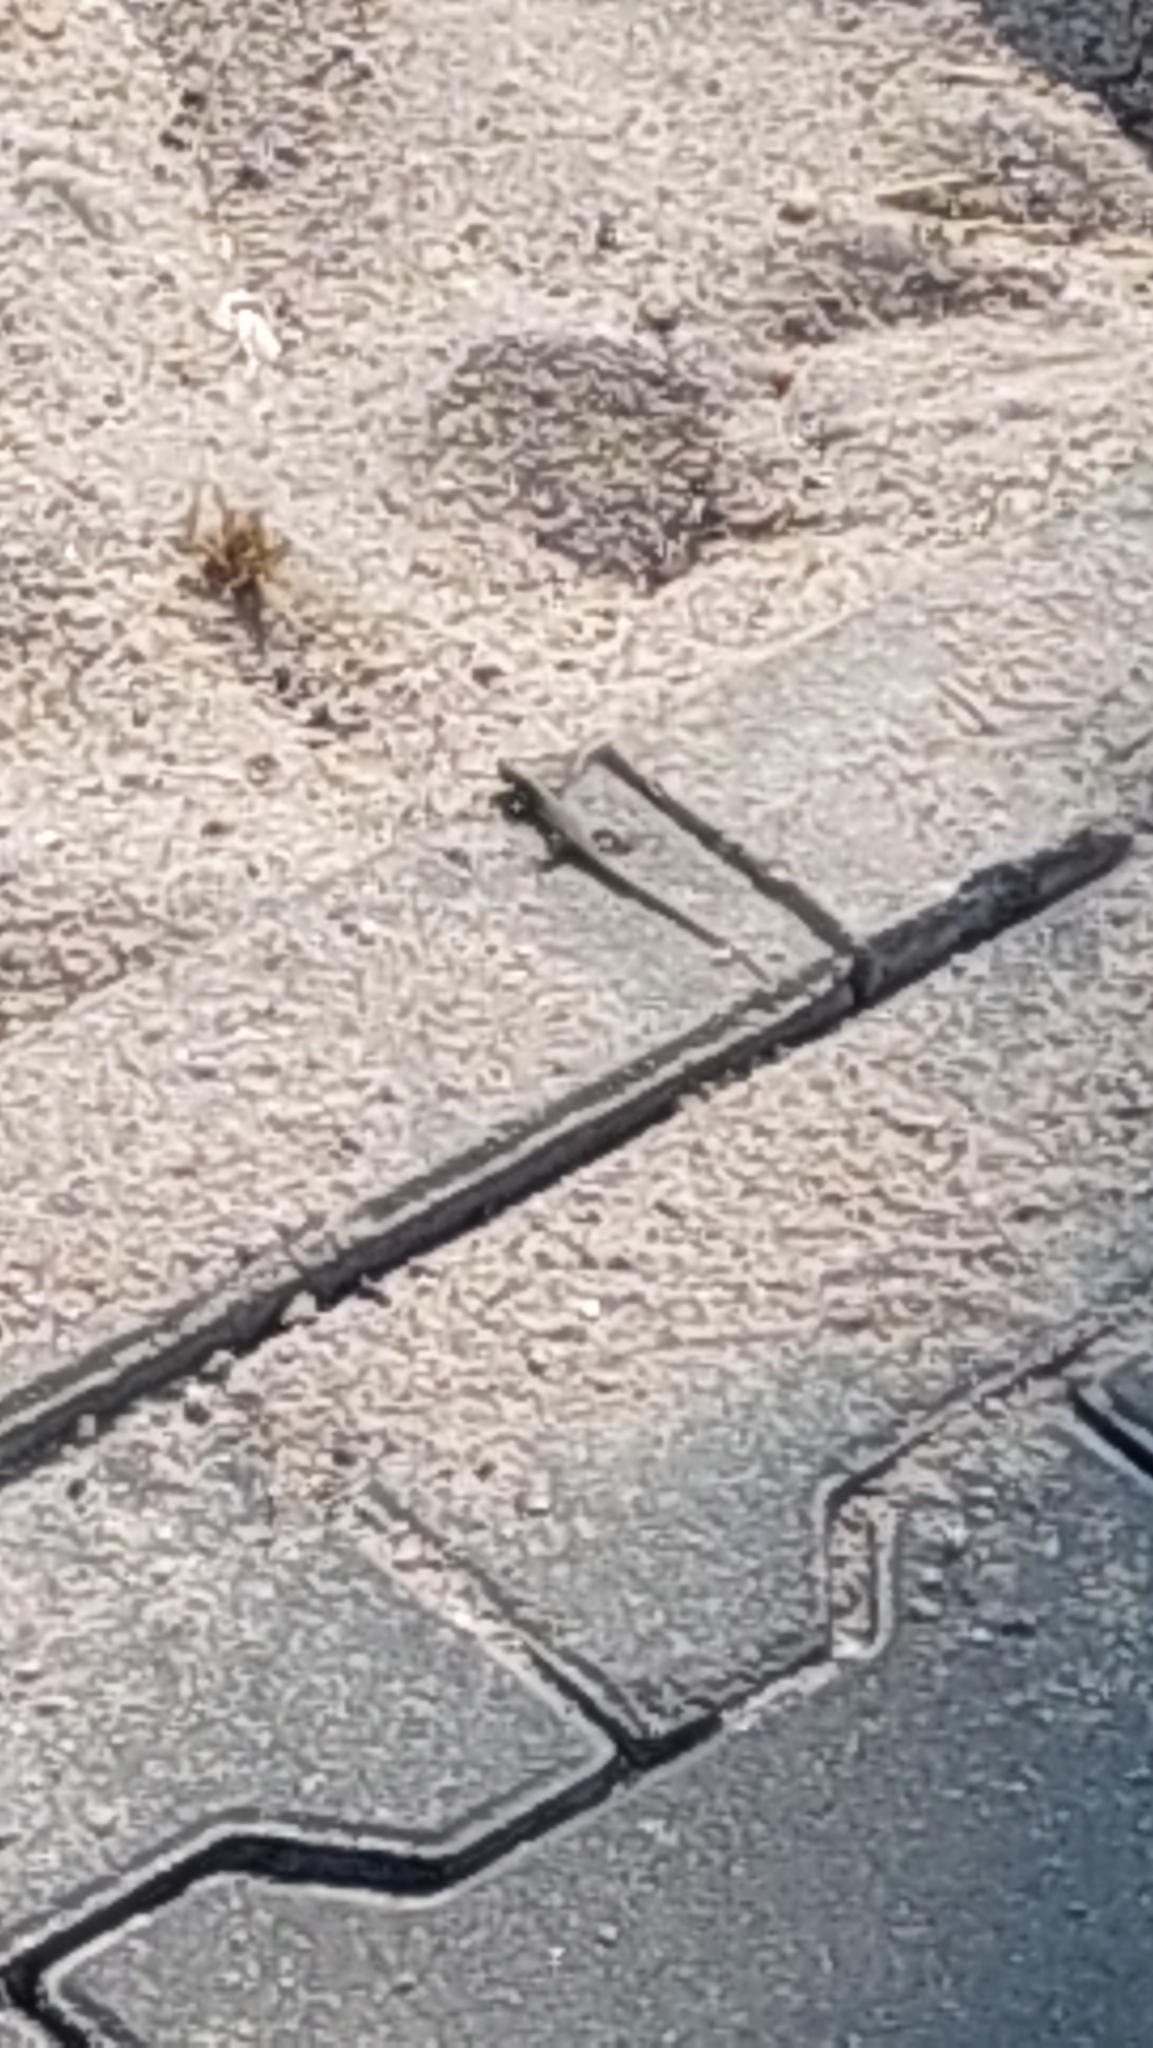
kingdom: Animalia
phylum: Chordata
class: Squamata
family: Lacertidae
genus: Podarcis
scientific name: Podarcis muralis
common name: Common wall lizard
